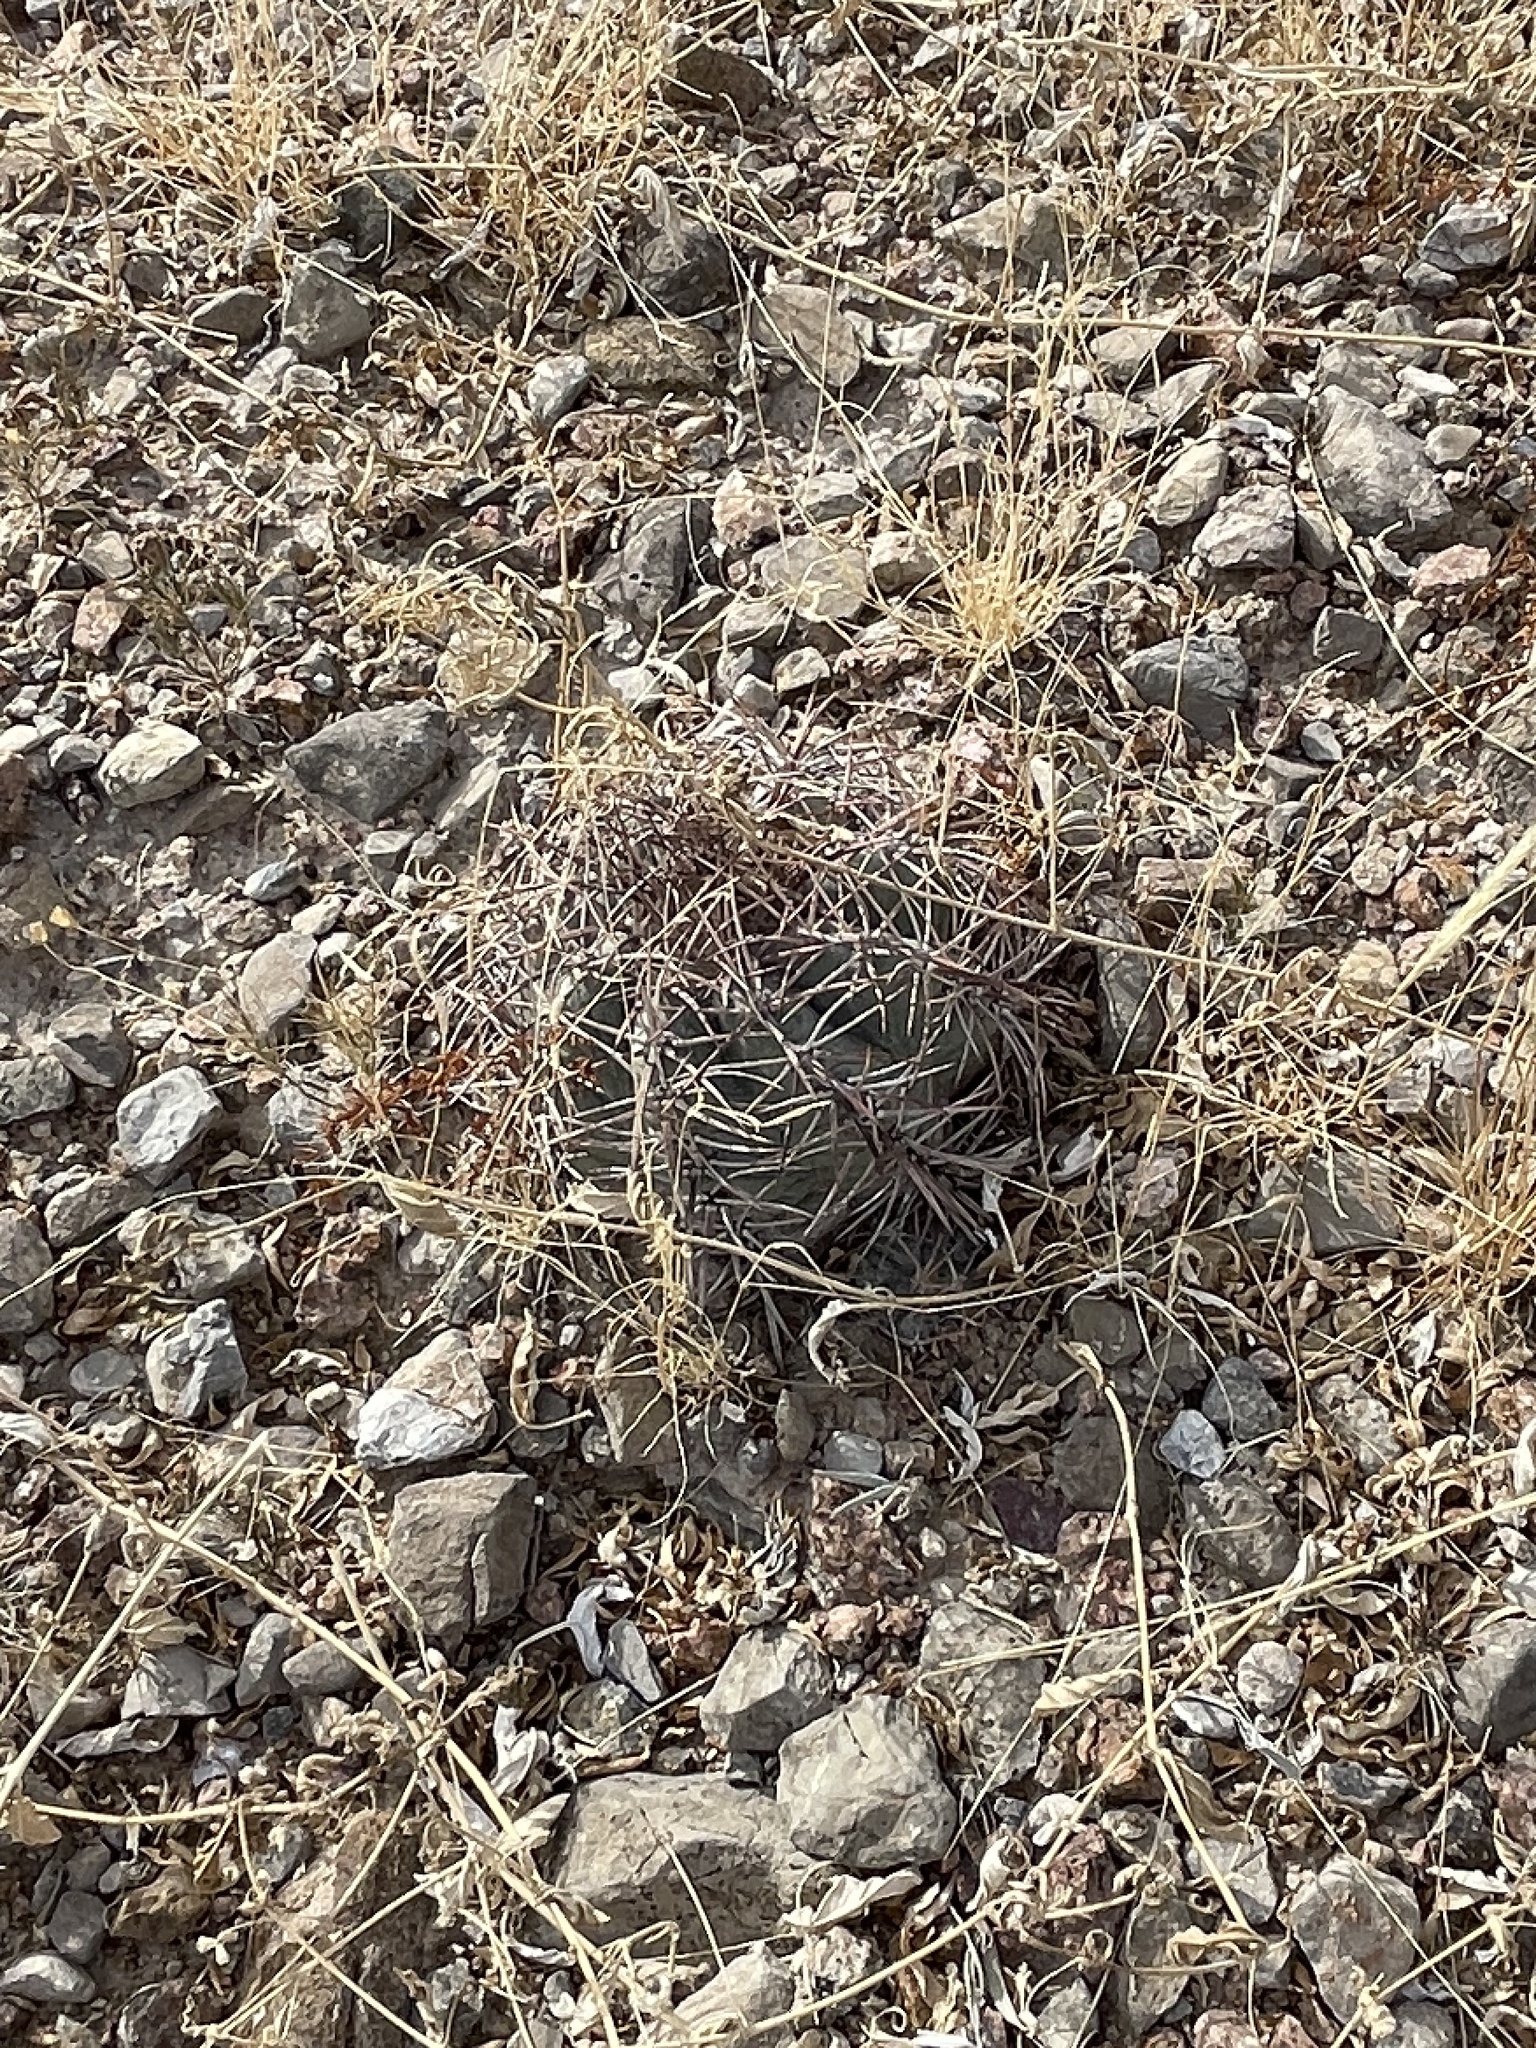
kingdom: Plantae
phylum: Tracheophyta
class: Magnoliopsida
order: Caryophyllales
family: Cactaceae
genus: Echinocactus
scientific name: Echinocactus horizonthalonius
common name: Devilshead
